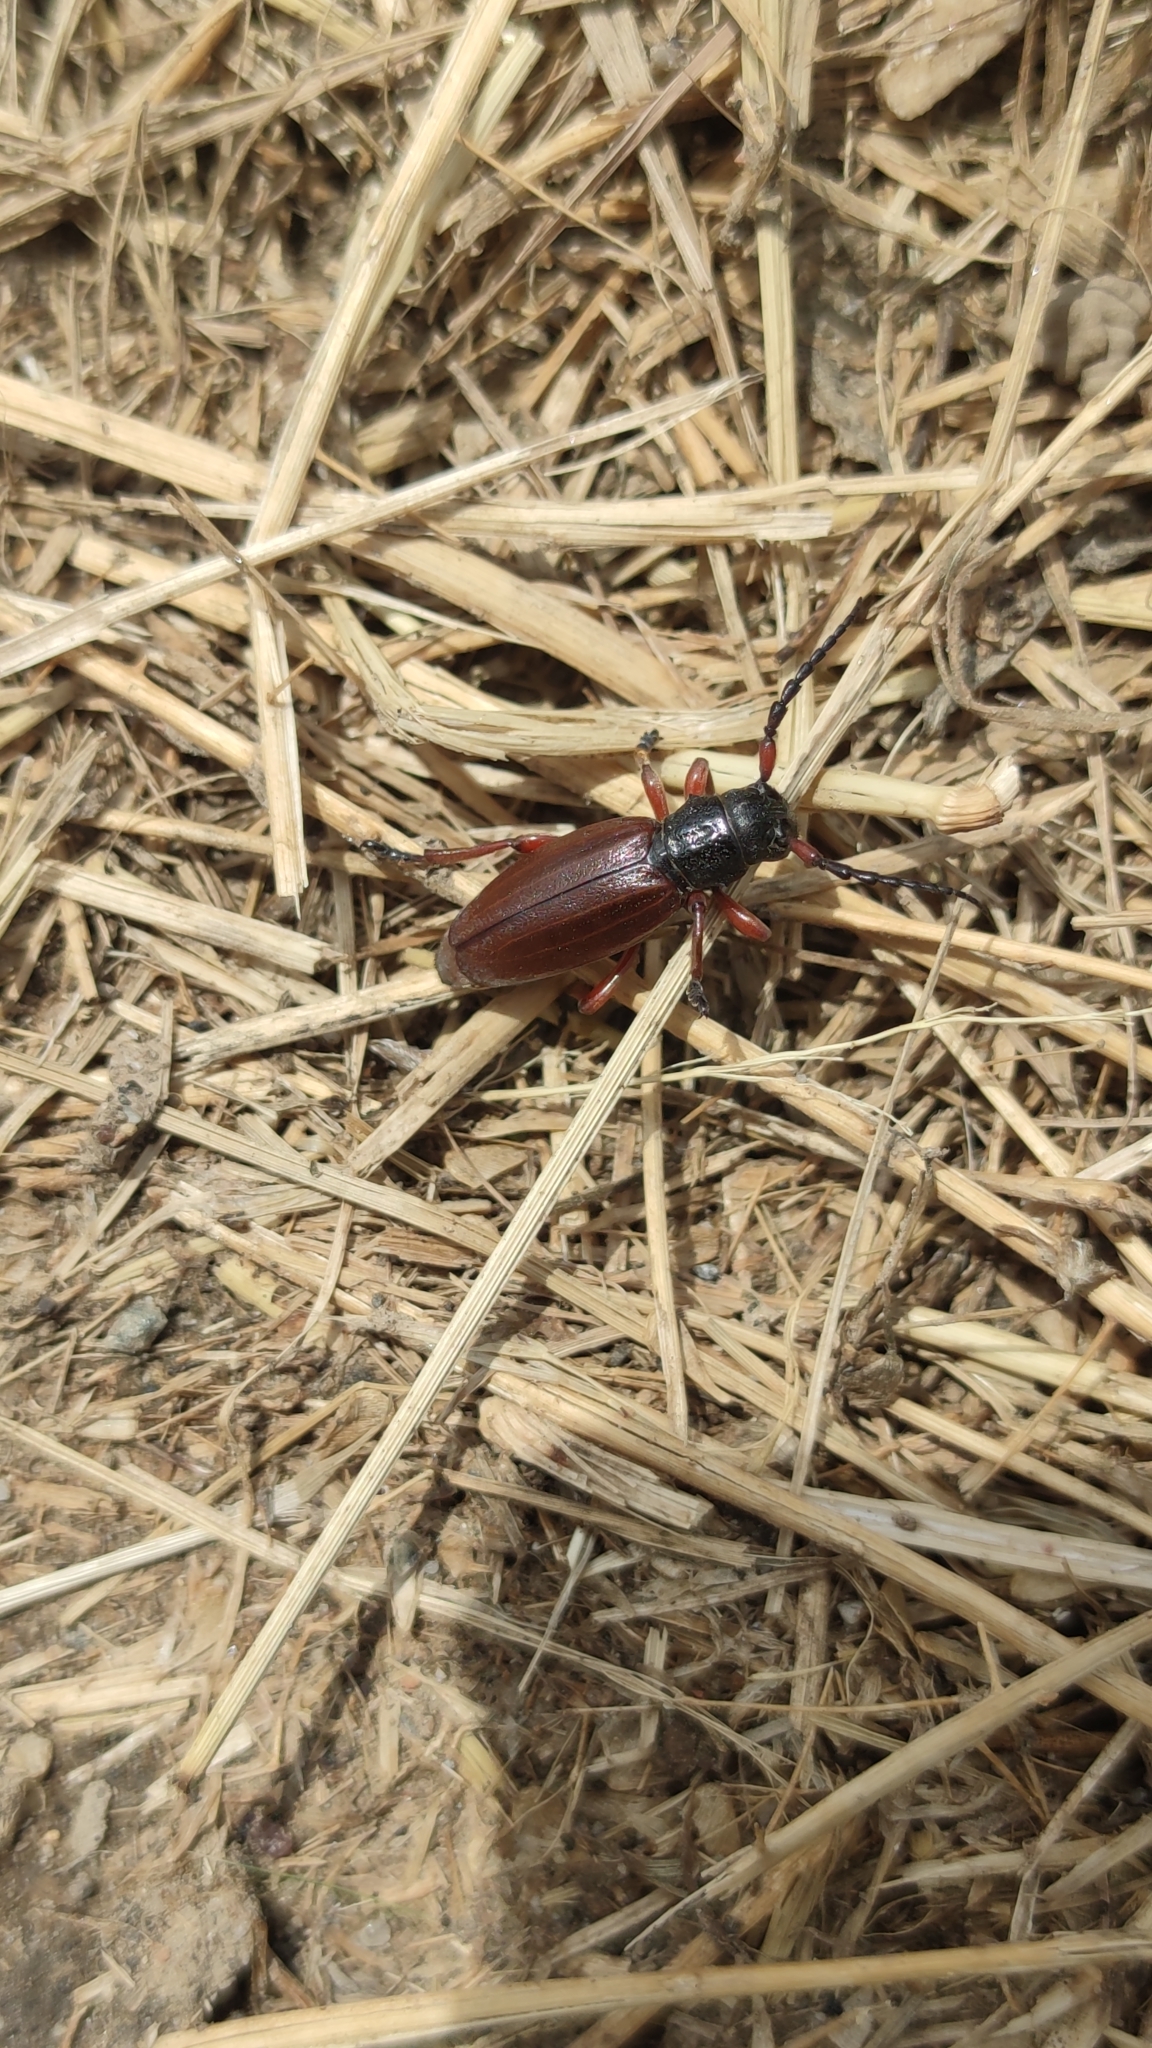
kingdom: Animalia
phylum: Arthropoda
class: Insecta
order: Coleoptera
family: Cerambycidae
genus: Dorcadion
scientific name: Dorcadion fulvum
